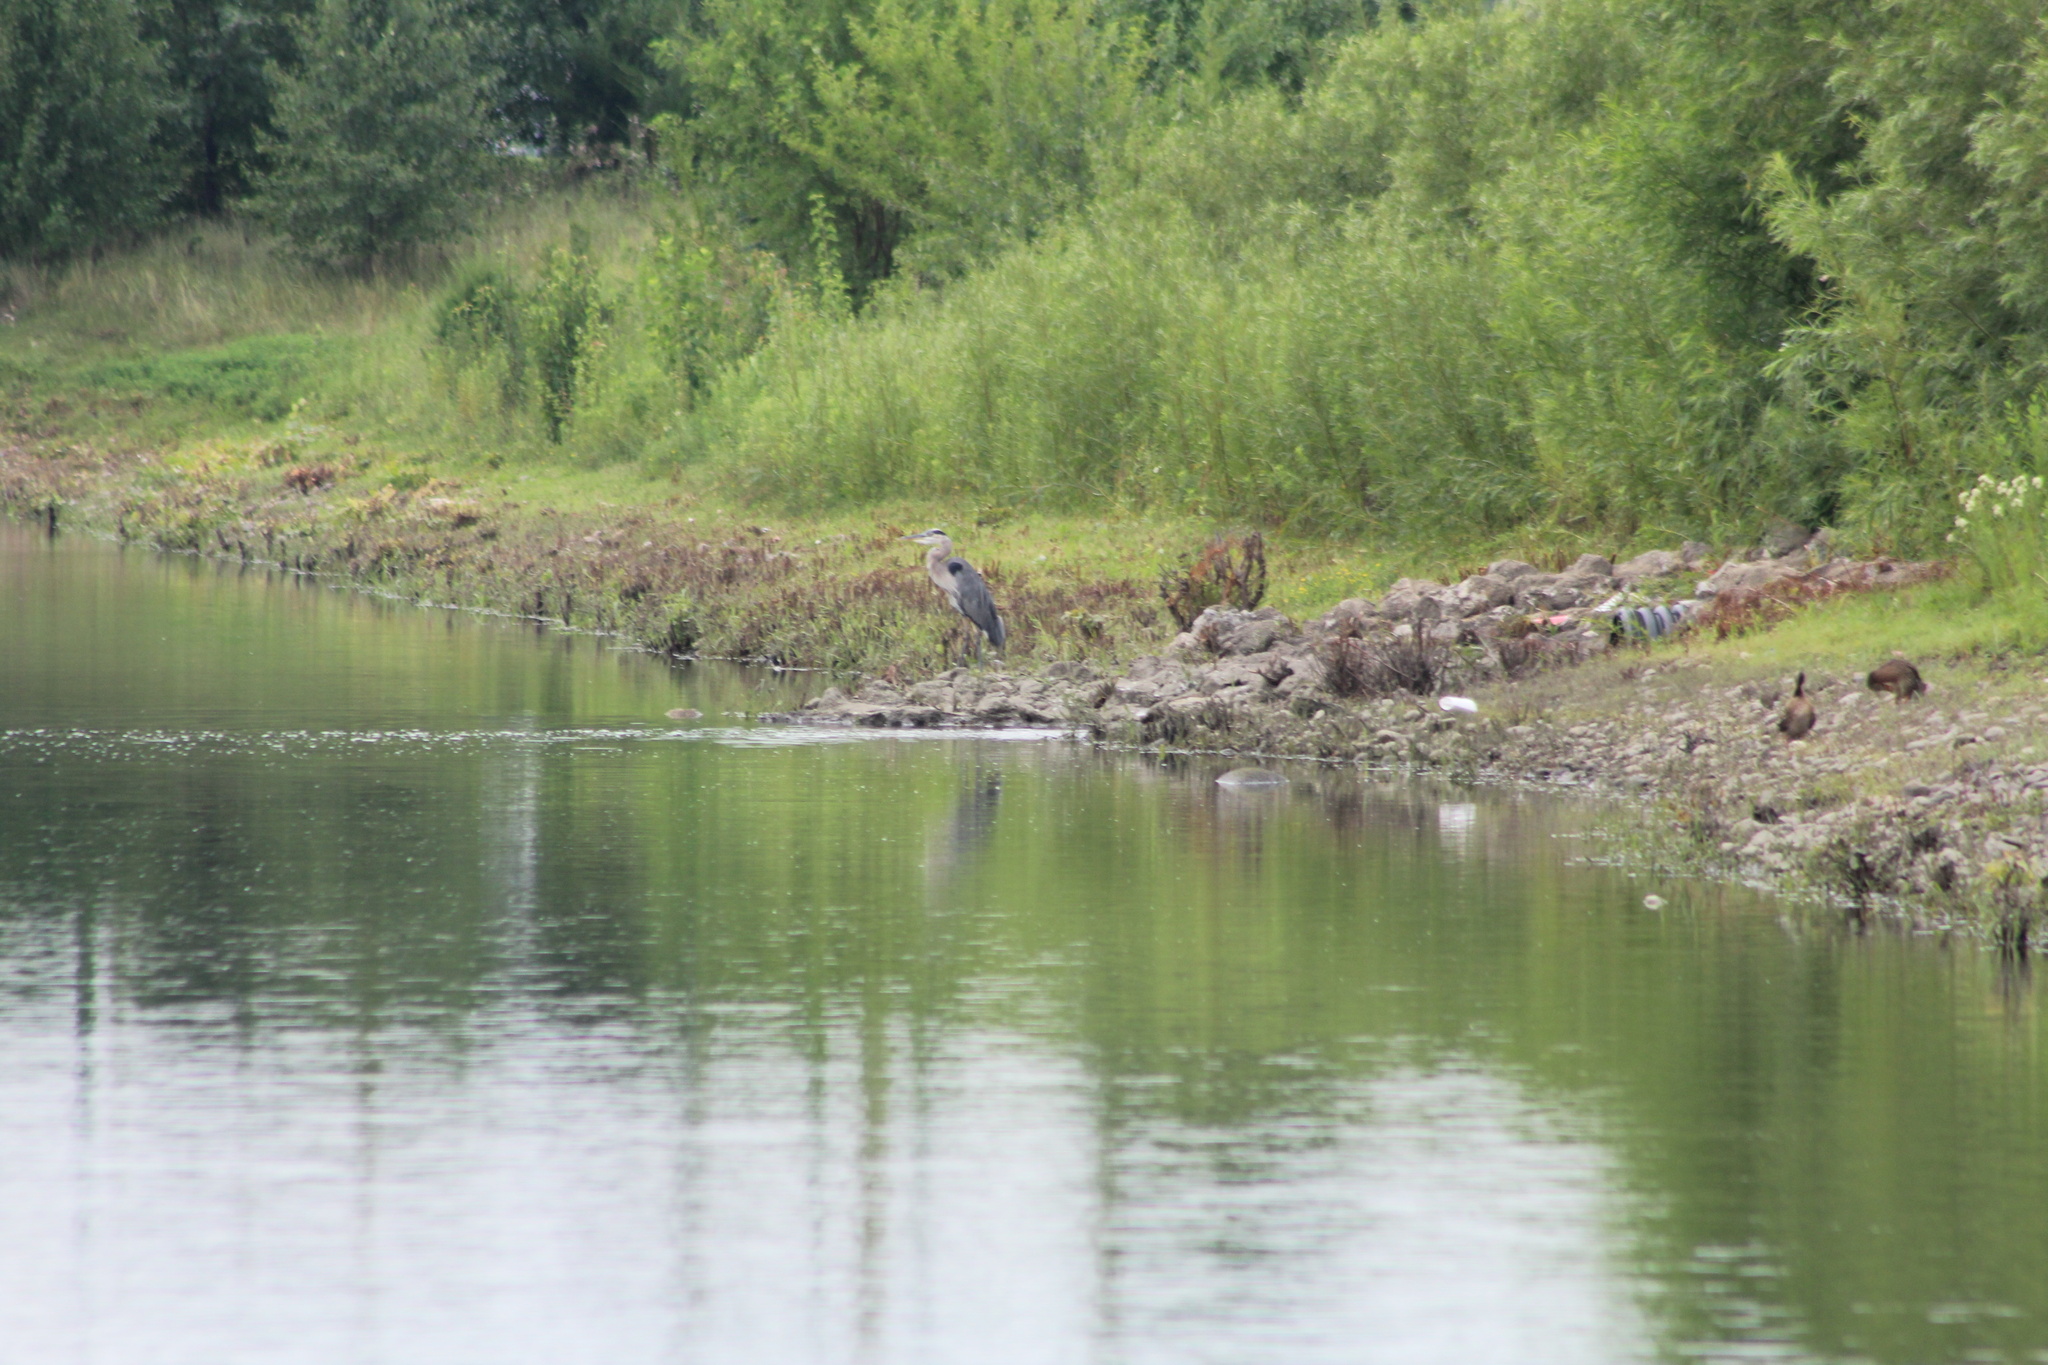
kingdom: Animalia
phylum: Chordata
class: Aves
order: Pelecaniformes
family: Ardeidae
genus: Ardea
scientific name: Ardea herodias
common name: Great blue heron
